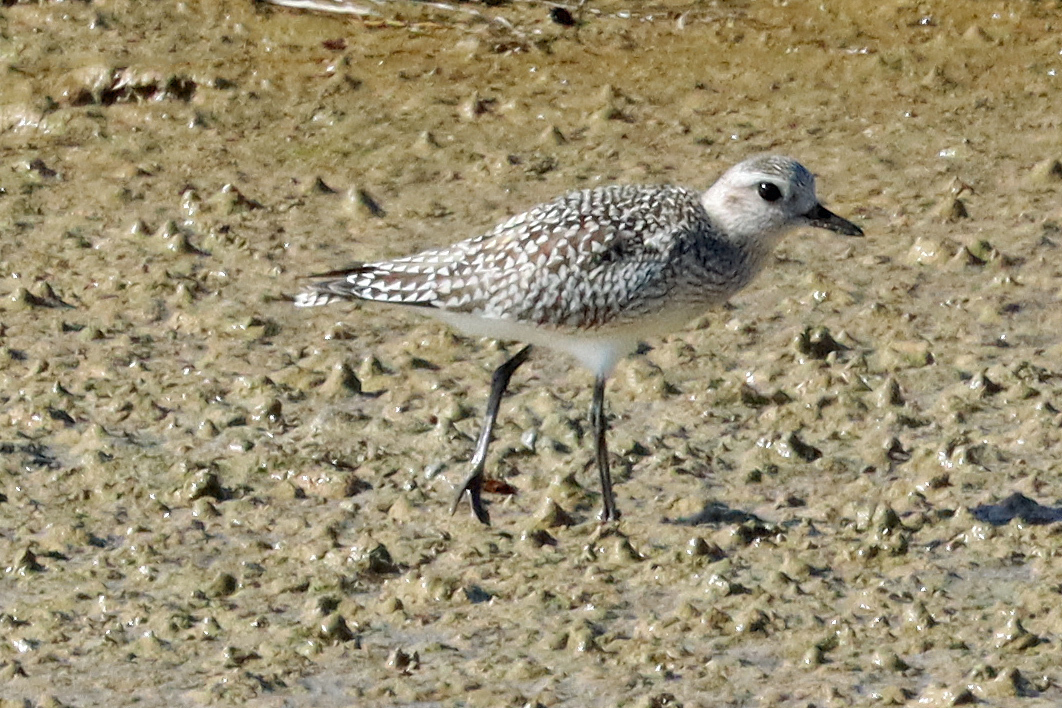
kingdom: Animalia
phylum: Chordata
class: Aves
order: Charadriiformes
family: Charadriidae
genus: Pluvialis
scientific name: Pluvialis squatarola
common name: Grey plover
